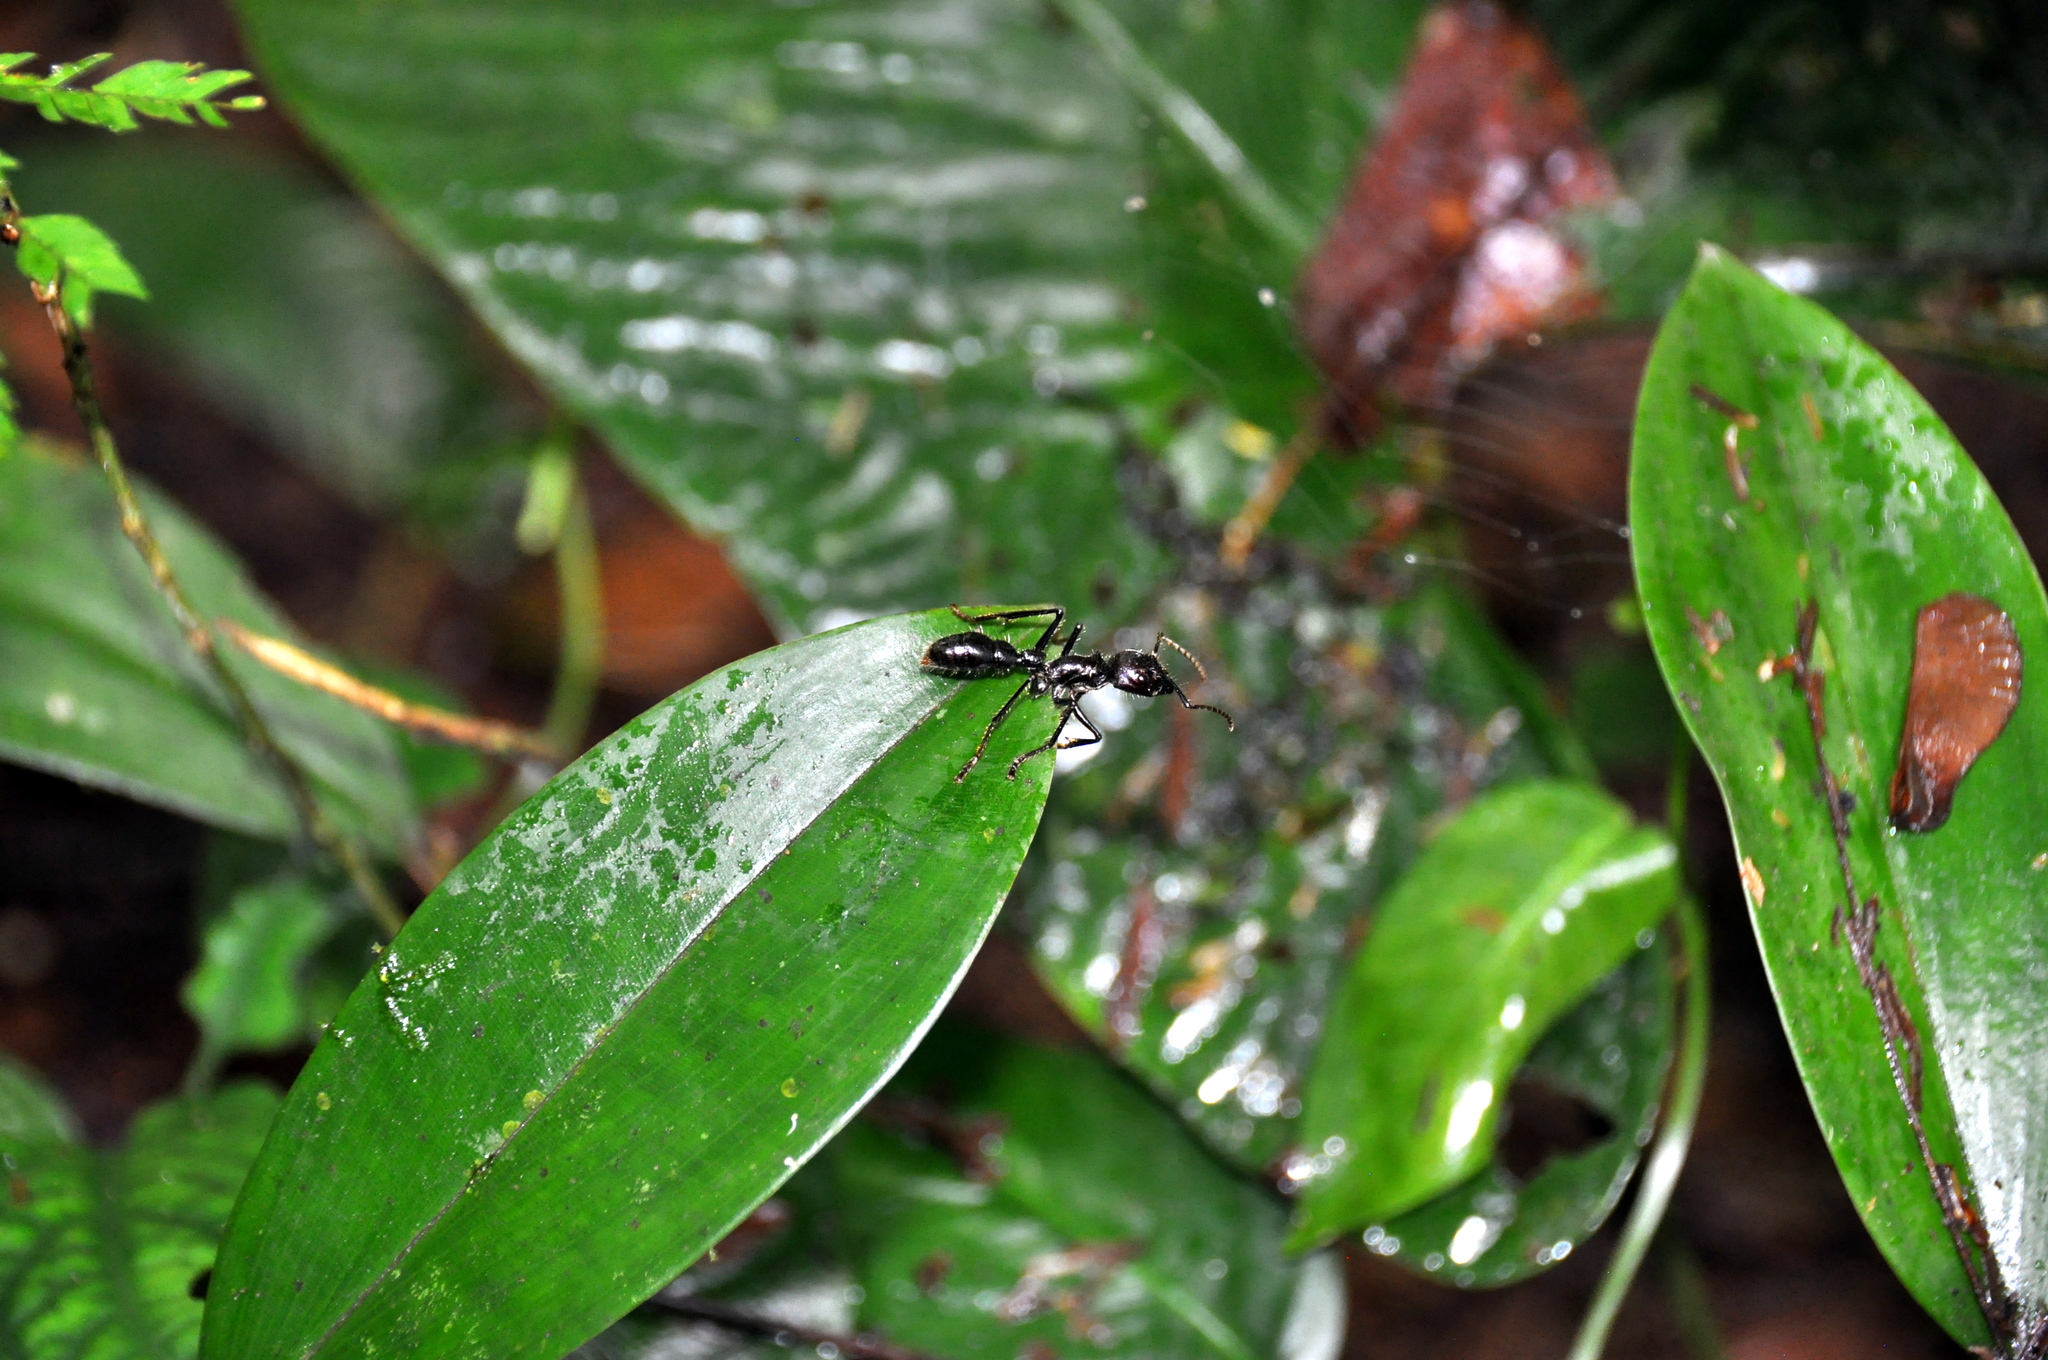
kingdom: Animalia
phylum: Arthropoda
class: Insecta
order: Hymenoptera
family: Formicidae
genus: Paraponera
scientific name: Paraponera clavata
